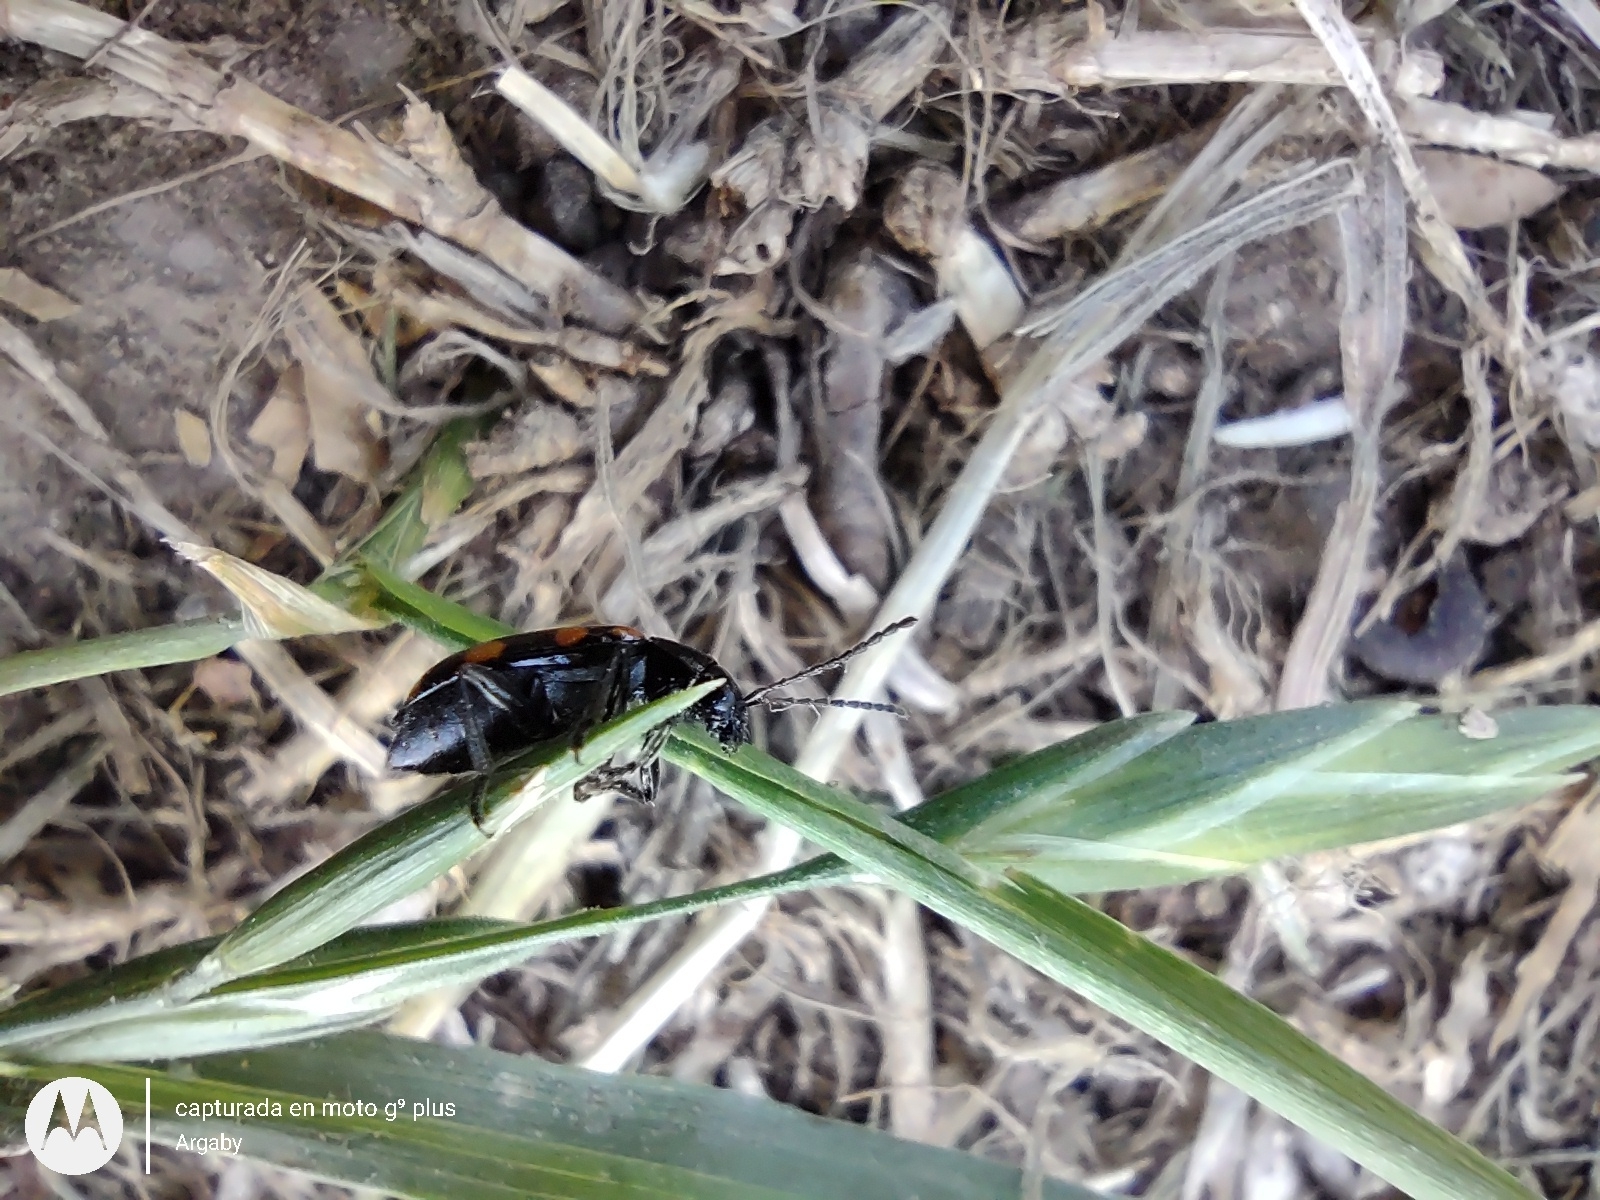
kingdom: Animalia
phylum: Arthropoda
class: Insecta
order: Coleoptera
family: Chrysomelidae
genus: Paranapiacaba
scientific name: Paranapiacaba
